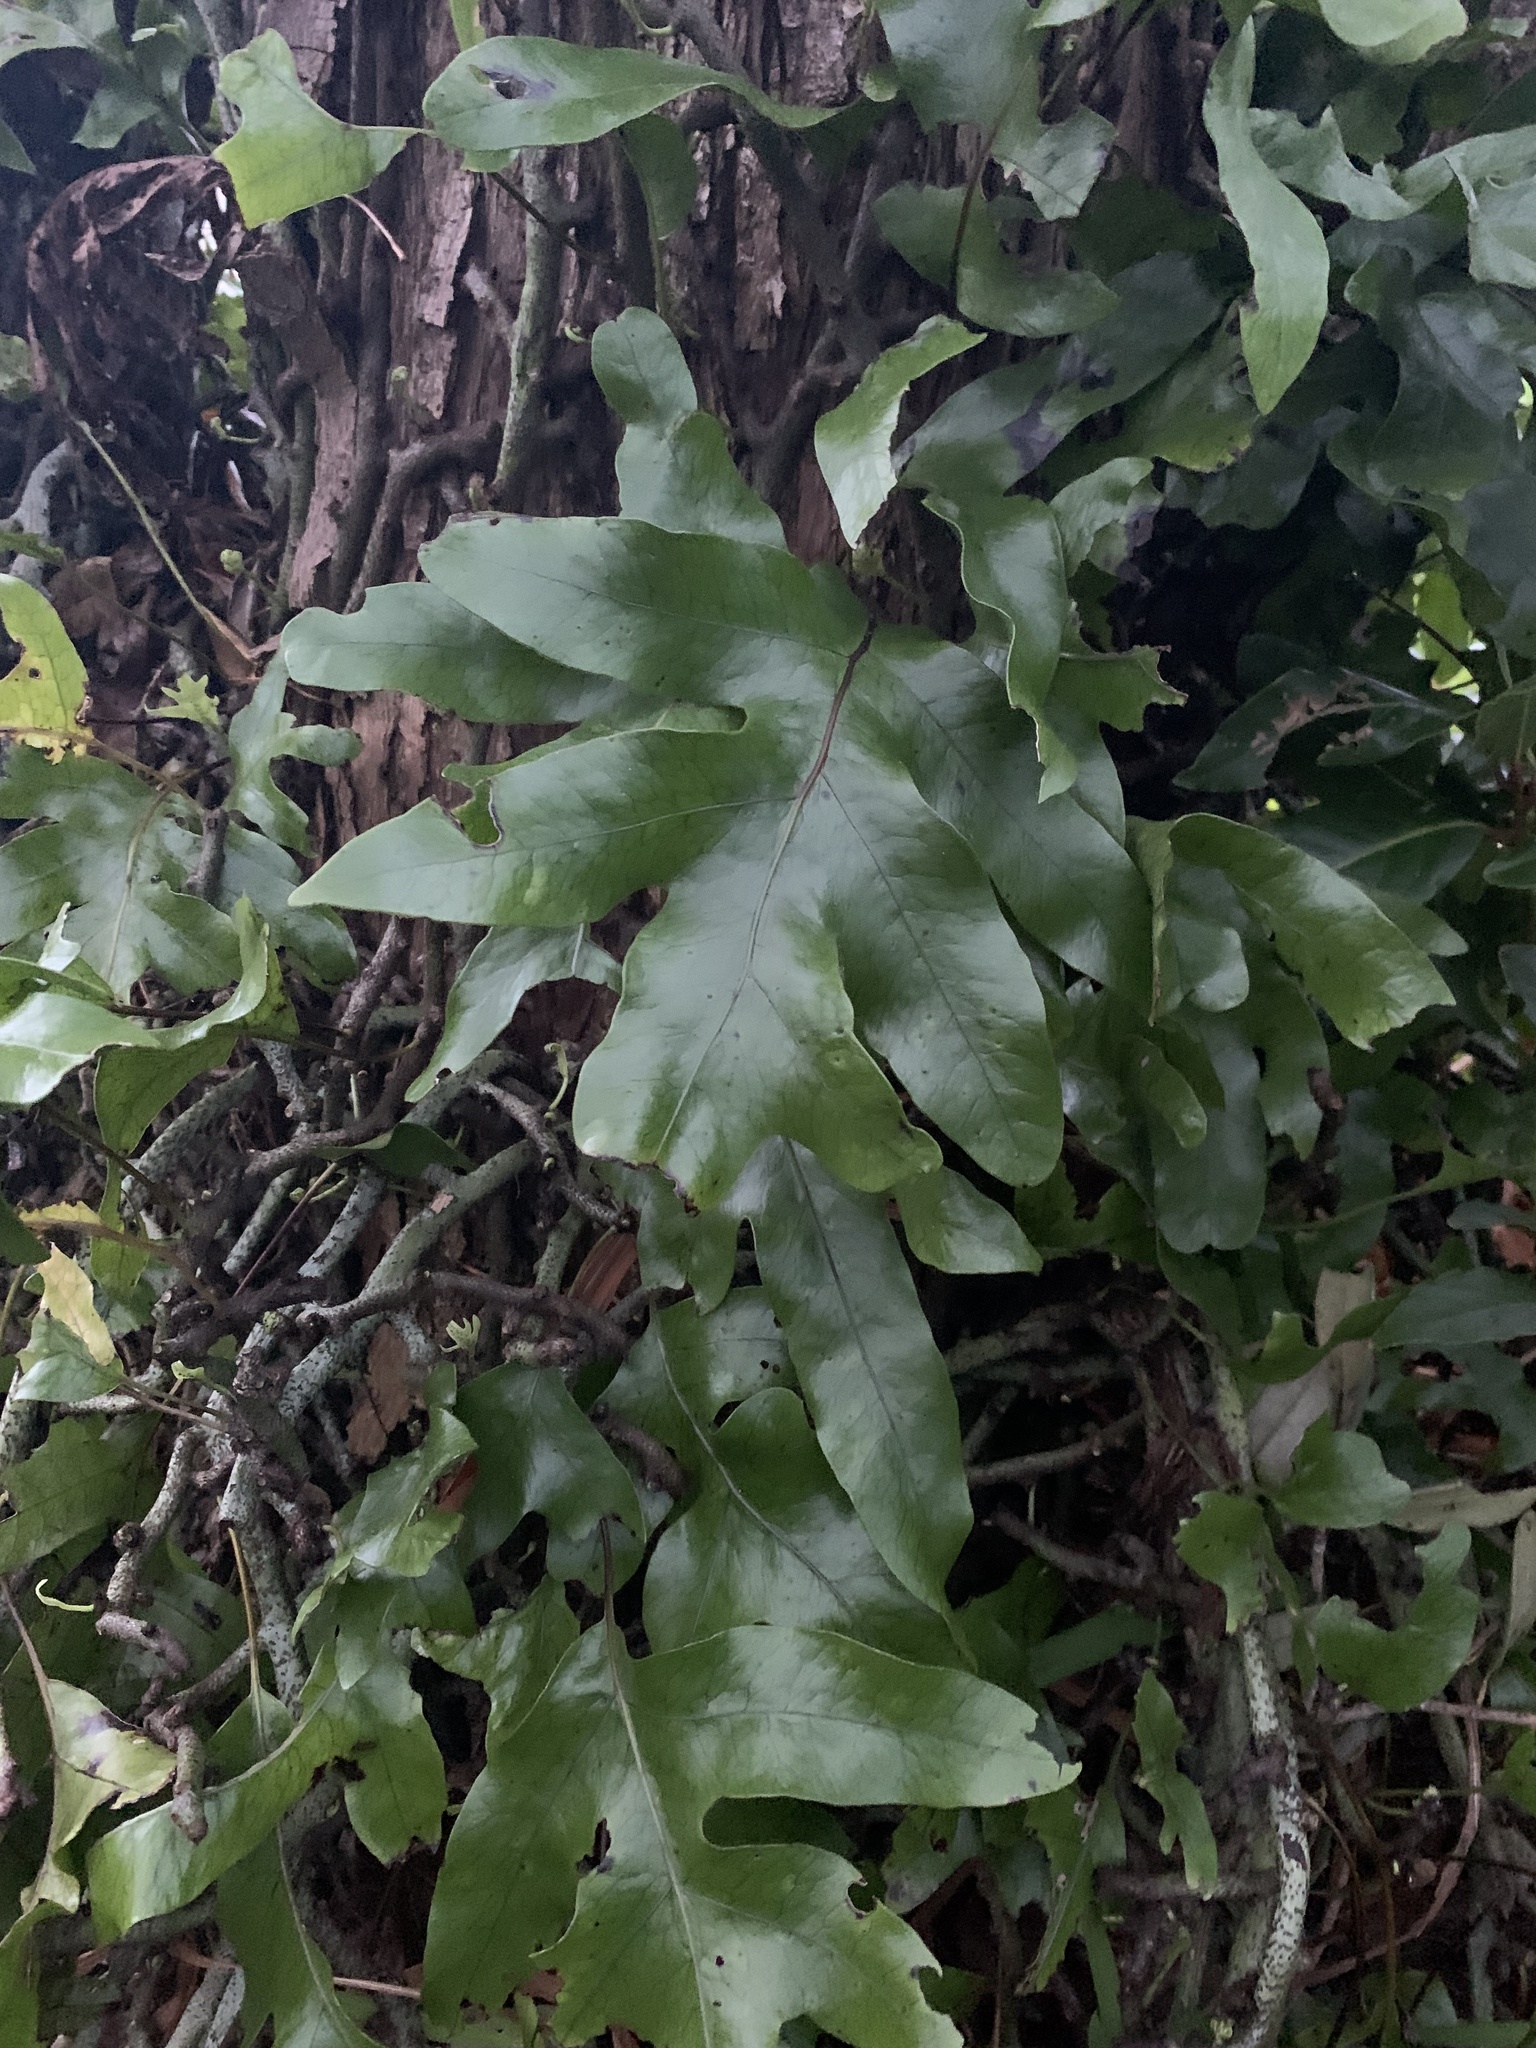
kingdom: Plantae
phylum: Tracheophyta
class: Polypodiopsida
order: Polypodiales
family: Polypodiaceae
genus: Lecanopteris
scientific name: Lecanopteris pustulata
